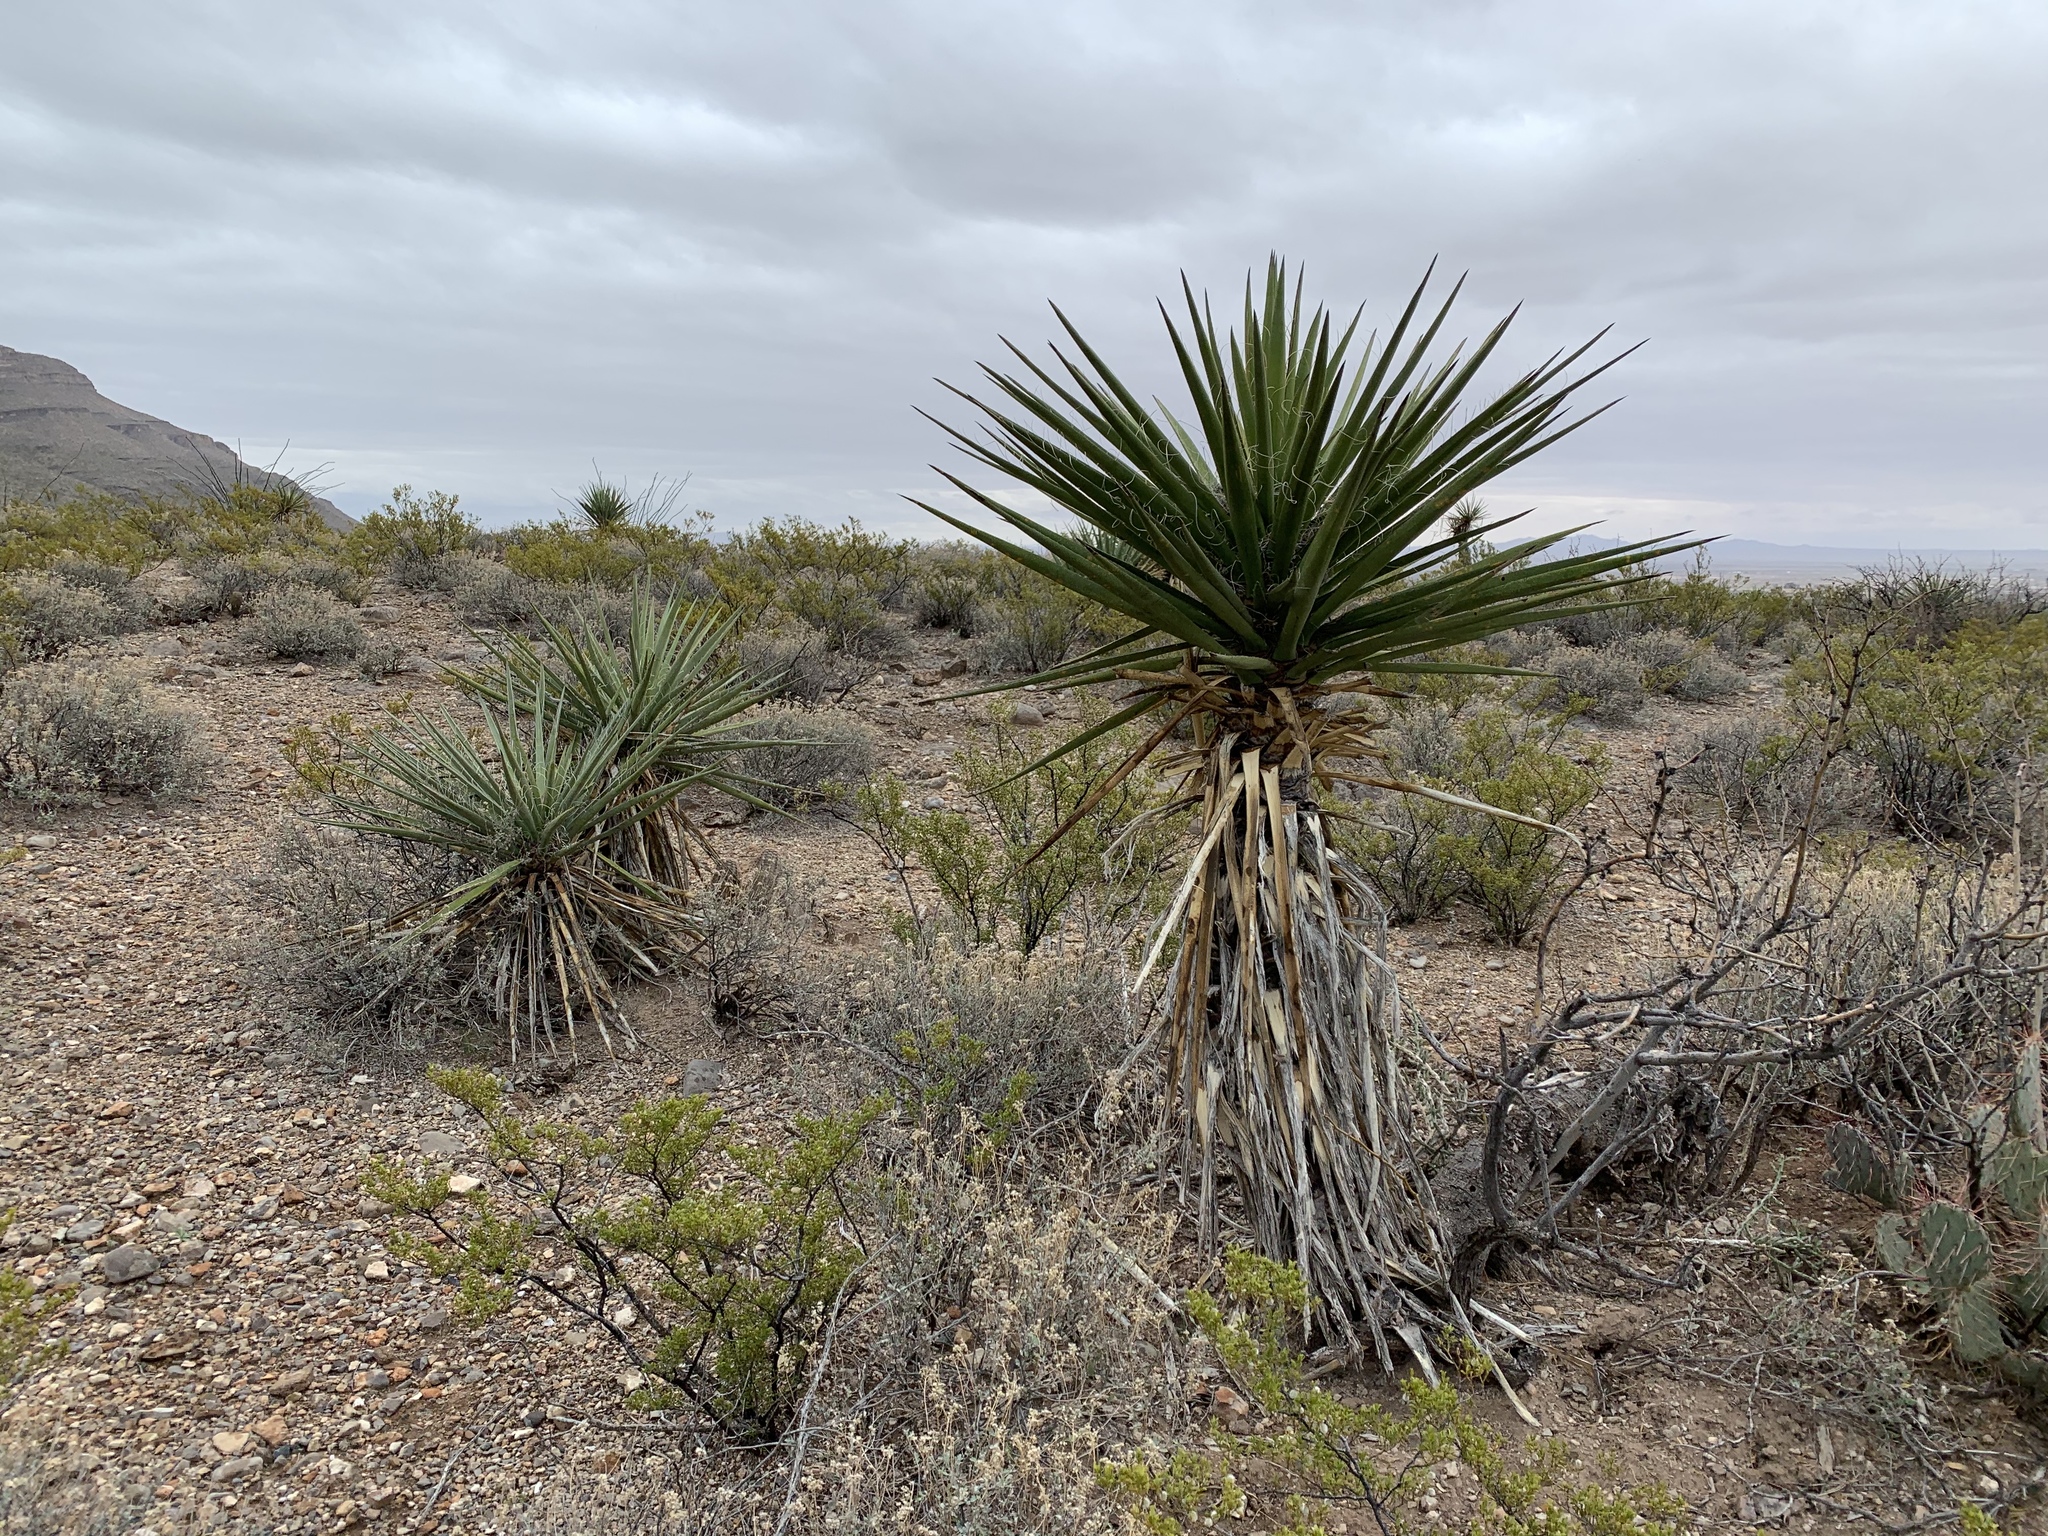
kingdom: Plantae
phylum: Tracheophyta
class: Liliopsida
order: Asparagales
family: Asparagaceae
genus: Yucca
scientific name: Yucca treculiana
